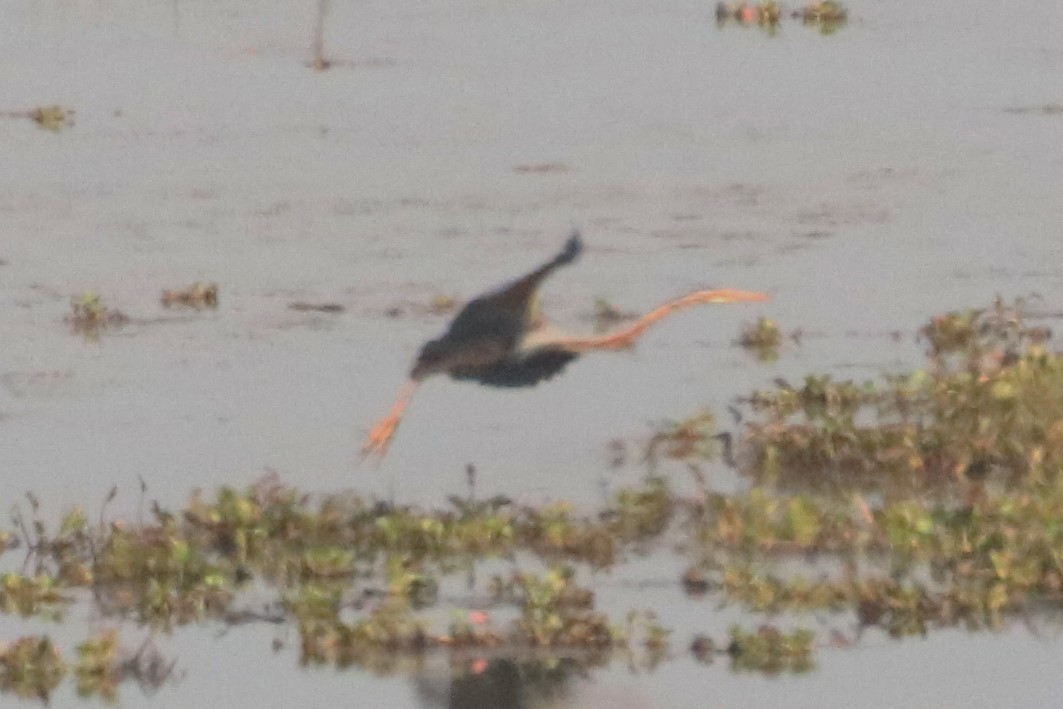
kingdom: Animalia
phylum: Chordata
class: Aves
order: Pelecaniformes
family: Ardeidae
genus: Ardea
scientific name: Ardea purpurea
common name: Purple heron
